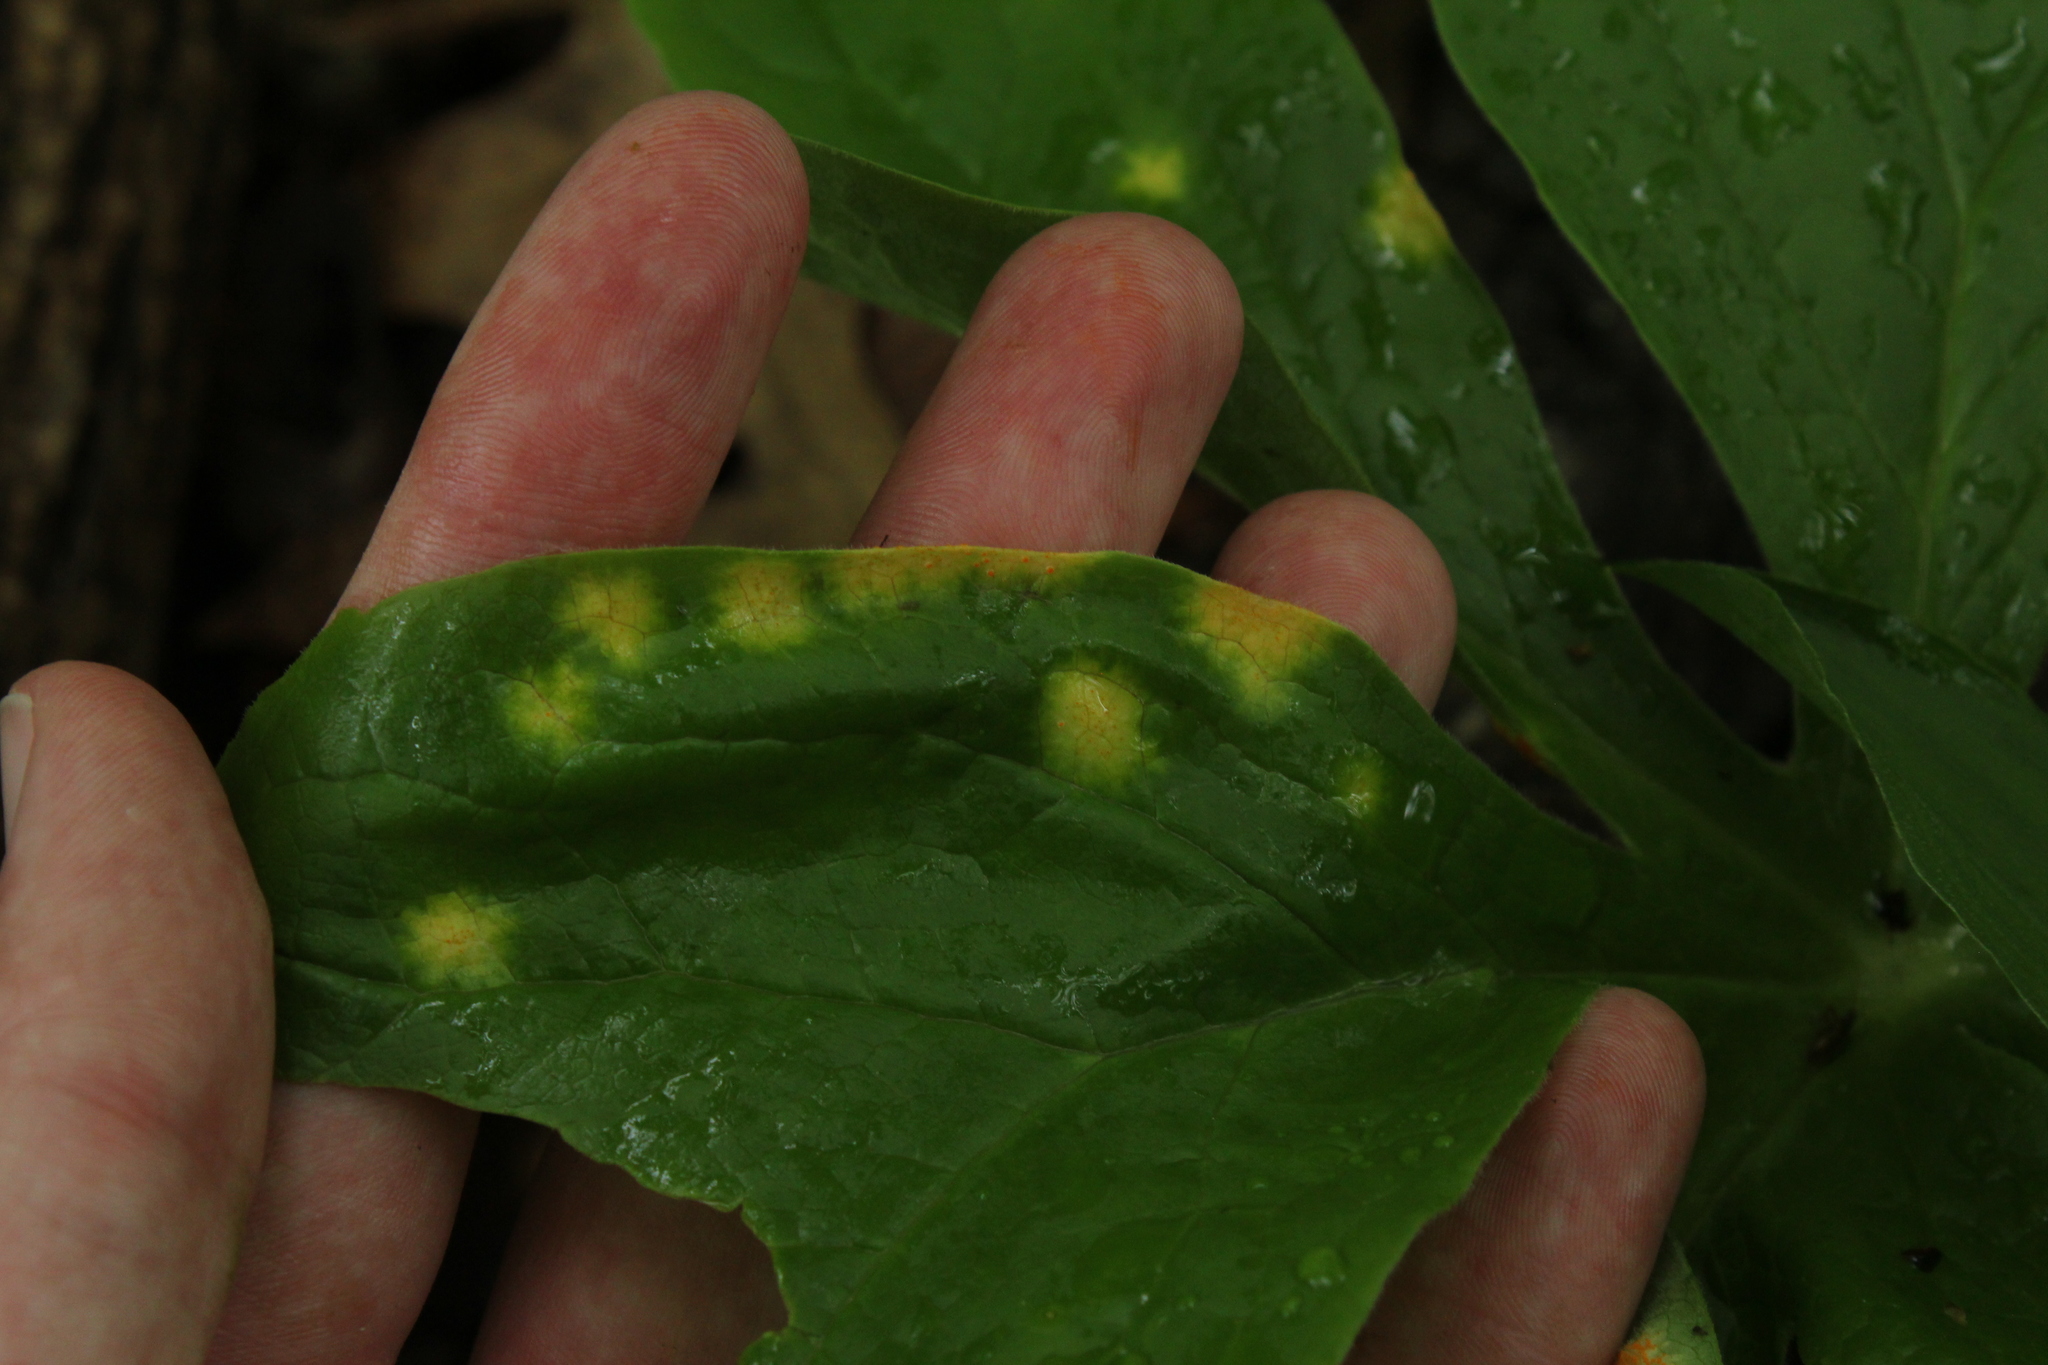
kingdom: Fungi
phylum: Basidiomycota
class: Pucciniomycetes
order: Pucciniales
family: Pucciniaceae
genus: Puccinia
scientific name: Puccinia podophylli
